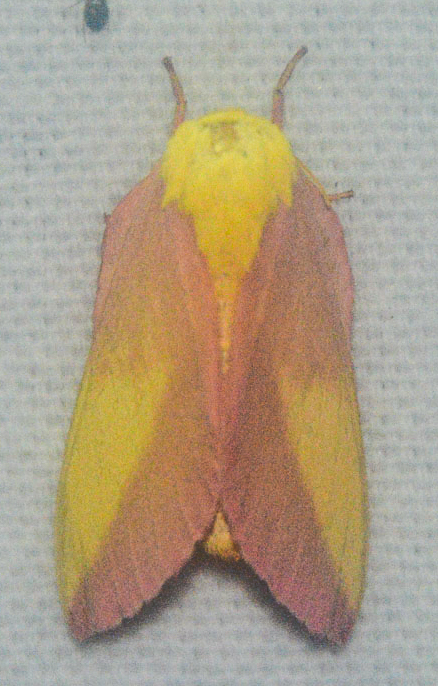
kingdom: Animalia
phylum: Arthropoda
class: Insecta
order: Lepidoptera
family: Saturniidae
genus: Dryocampa
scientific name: Dryocampa rubicunda
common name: Rosy maple moth
